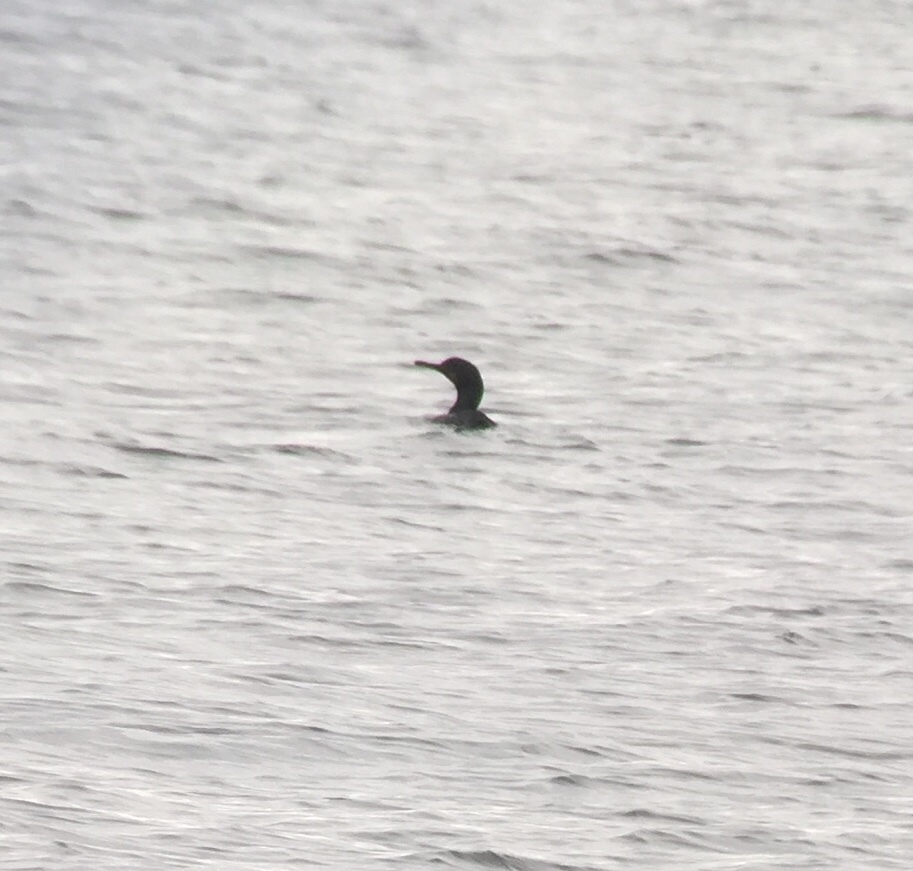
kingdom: Animalia
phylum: Chordata
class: Aves
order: Suliformes
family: Phalacrocoracidae
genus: Urile
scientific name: Urile penicillatus
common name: Brandt's cormorant
